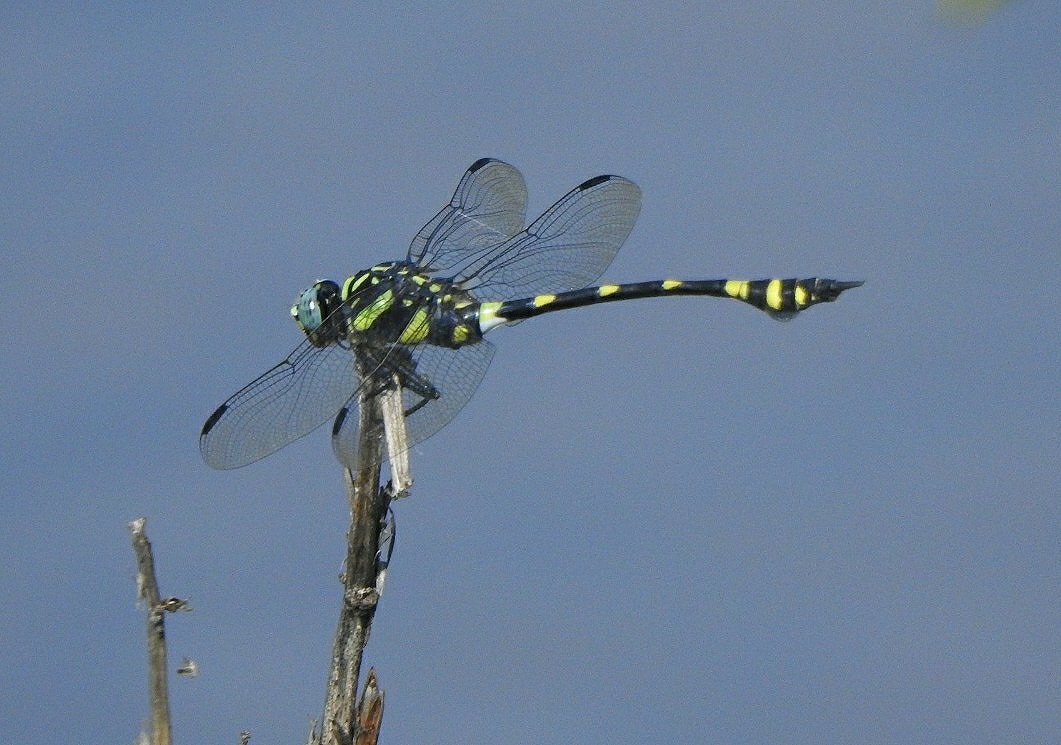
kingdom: Animalia
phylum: Arthropoda
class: Insecta
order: Odonata
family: Gomphidae
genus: Ictinogomphus
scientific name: Ictinogomphus rapax
